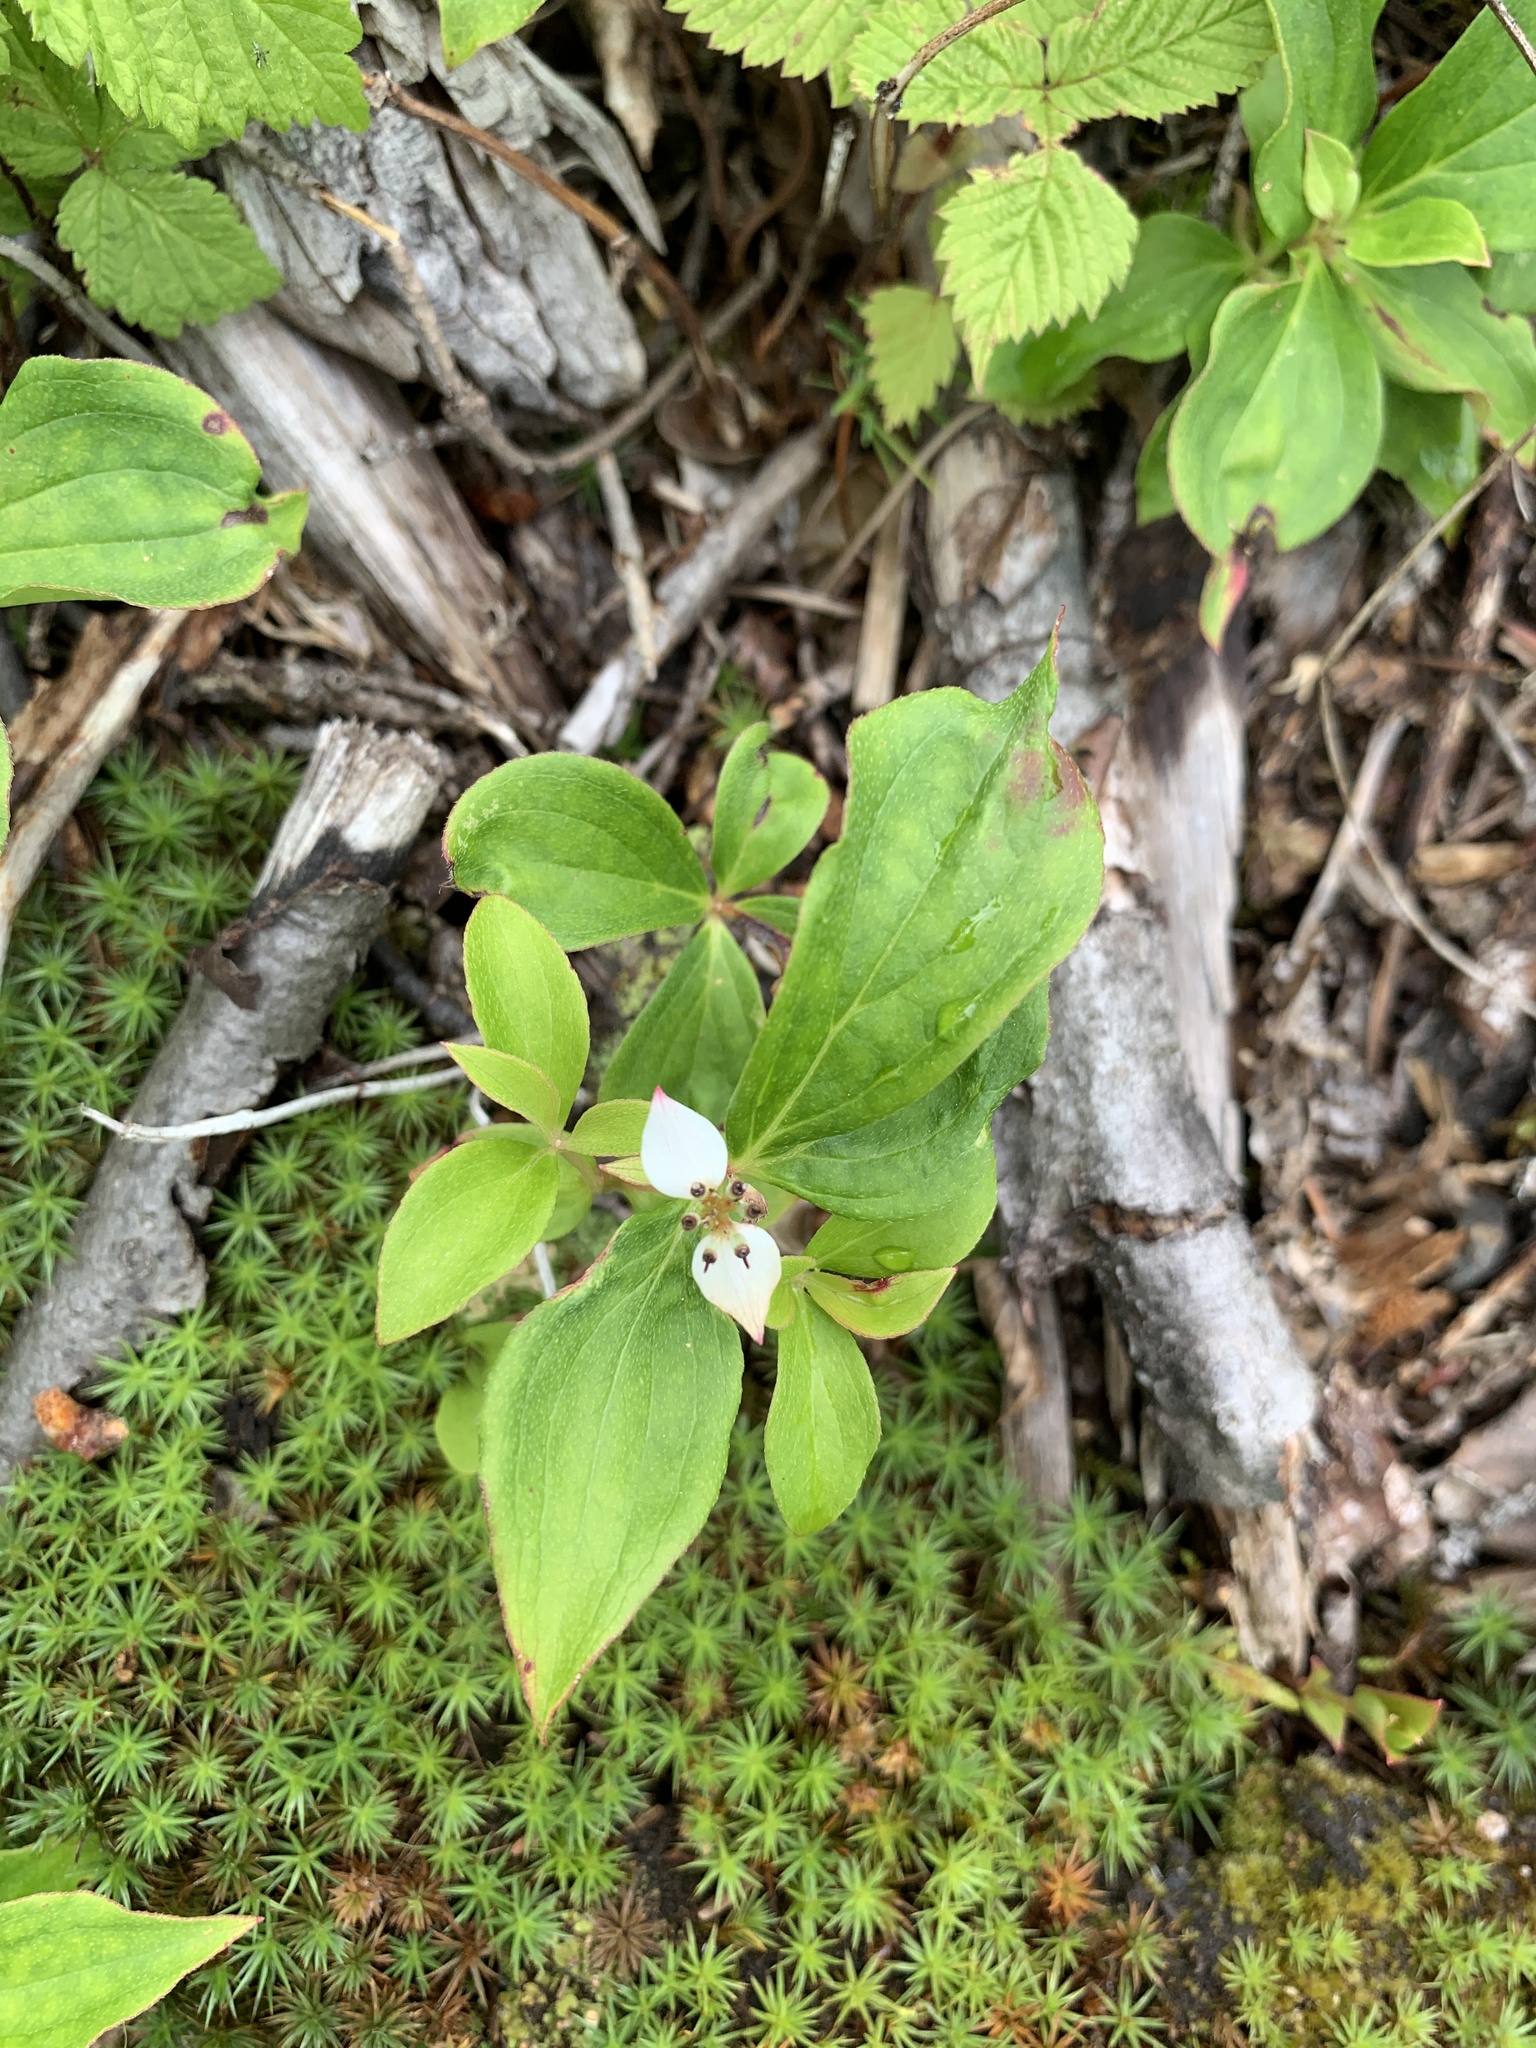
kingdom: Plantae
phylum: Tracheophyta
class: Magnoliopsida
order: Cornales
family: Cornaceae
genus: Cornus
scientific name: Cornus canadensis
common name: Creeping dogwood
